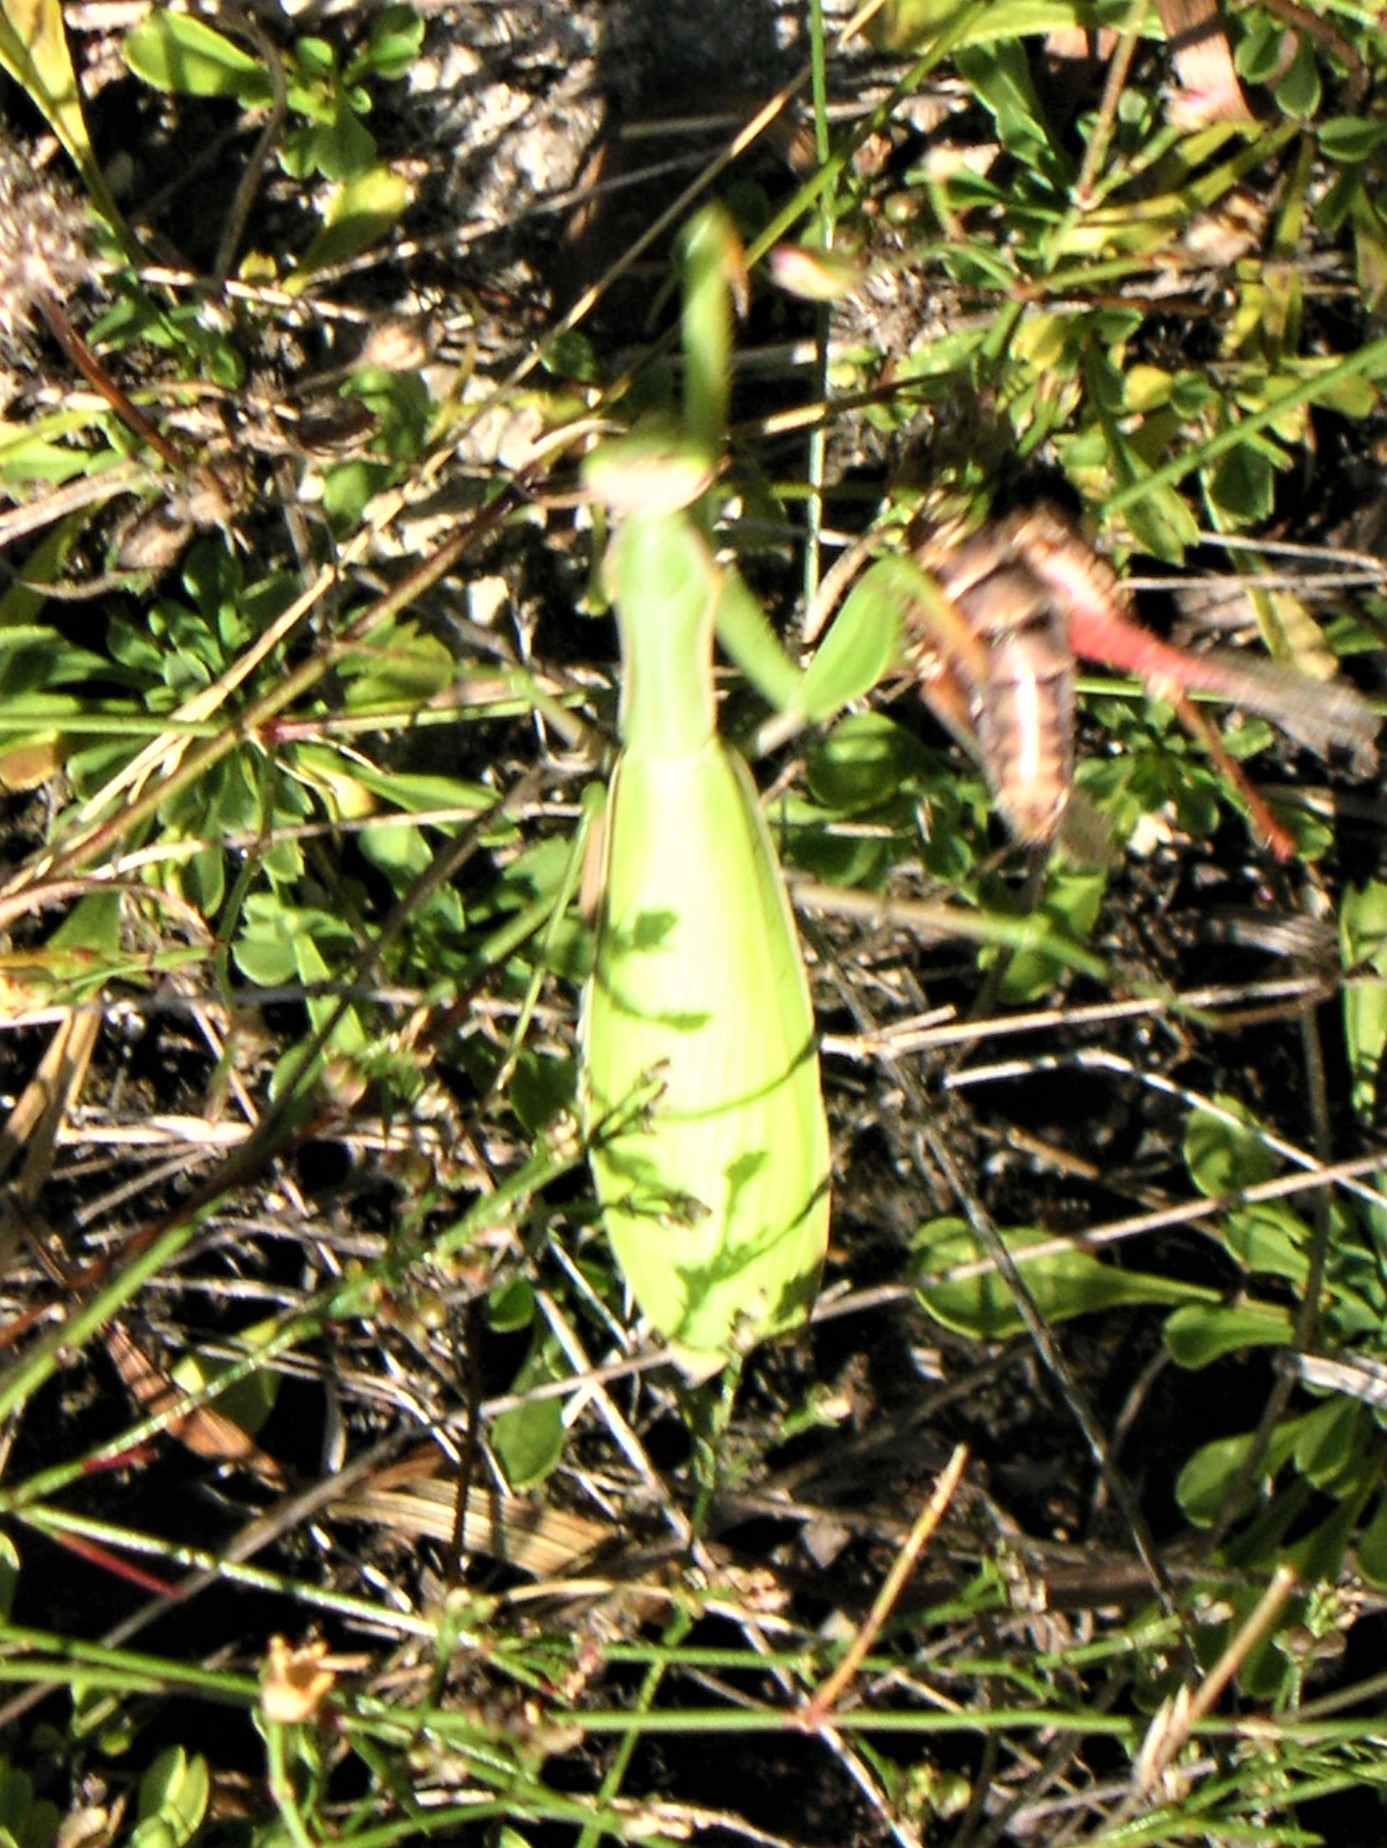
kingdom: Animalia
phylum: Arthropoda
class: Insecta
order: Mantodea
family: Mantidae
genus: Mantis
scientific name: Mantis religiosa
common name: Praying mantis
